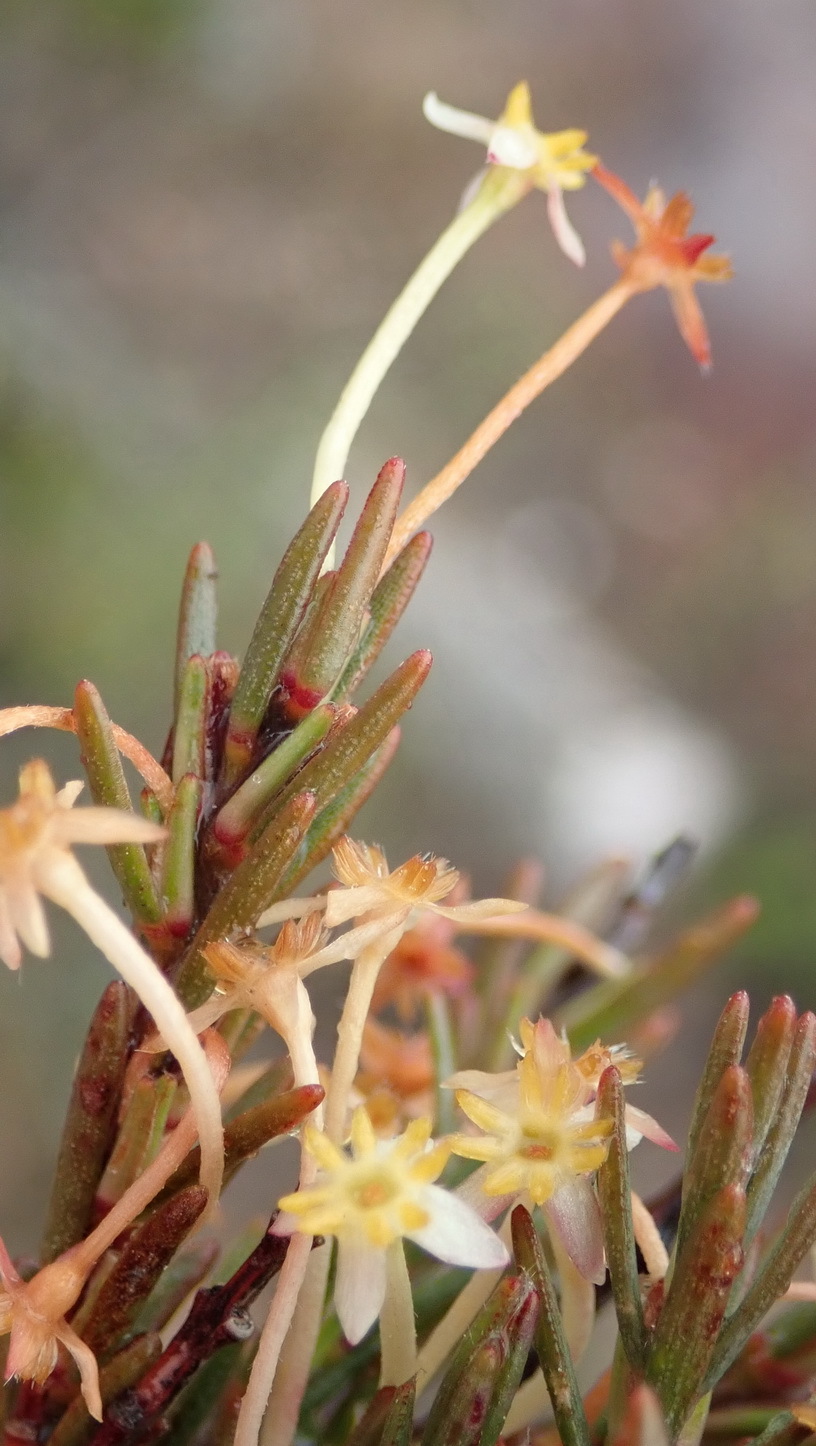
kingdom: Plantae
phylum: Tracheophyta
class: Magnoliopsida
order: Malvales
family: Thymelaeaceae
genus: Struthiola
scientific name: Struthiola eckloniana
